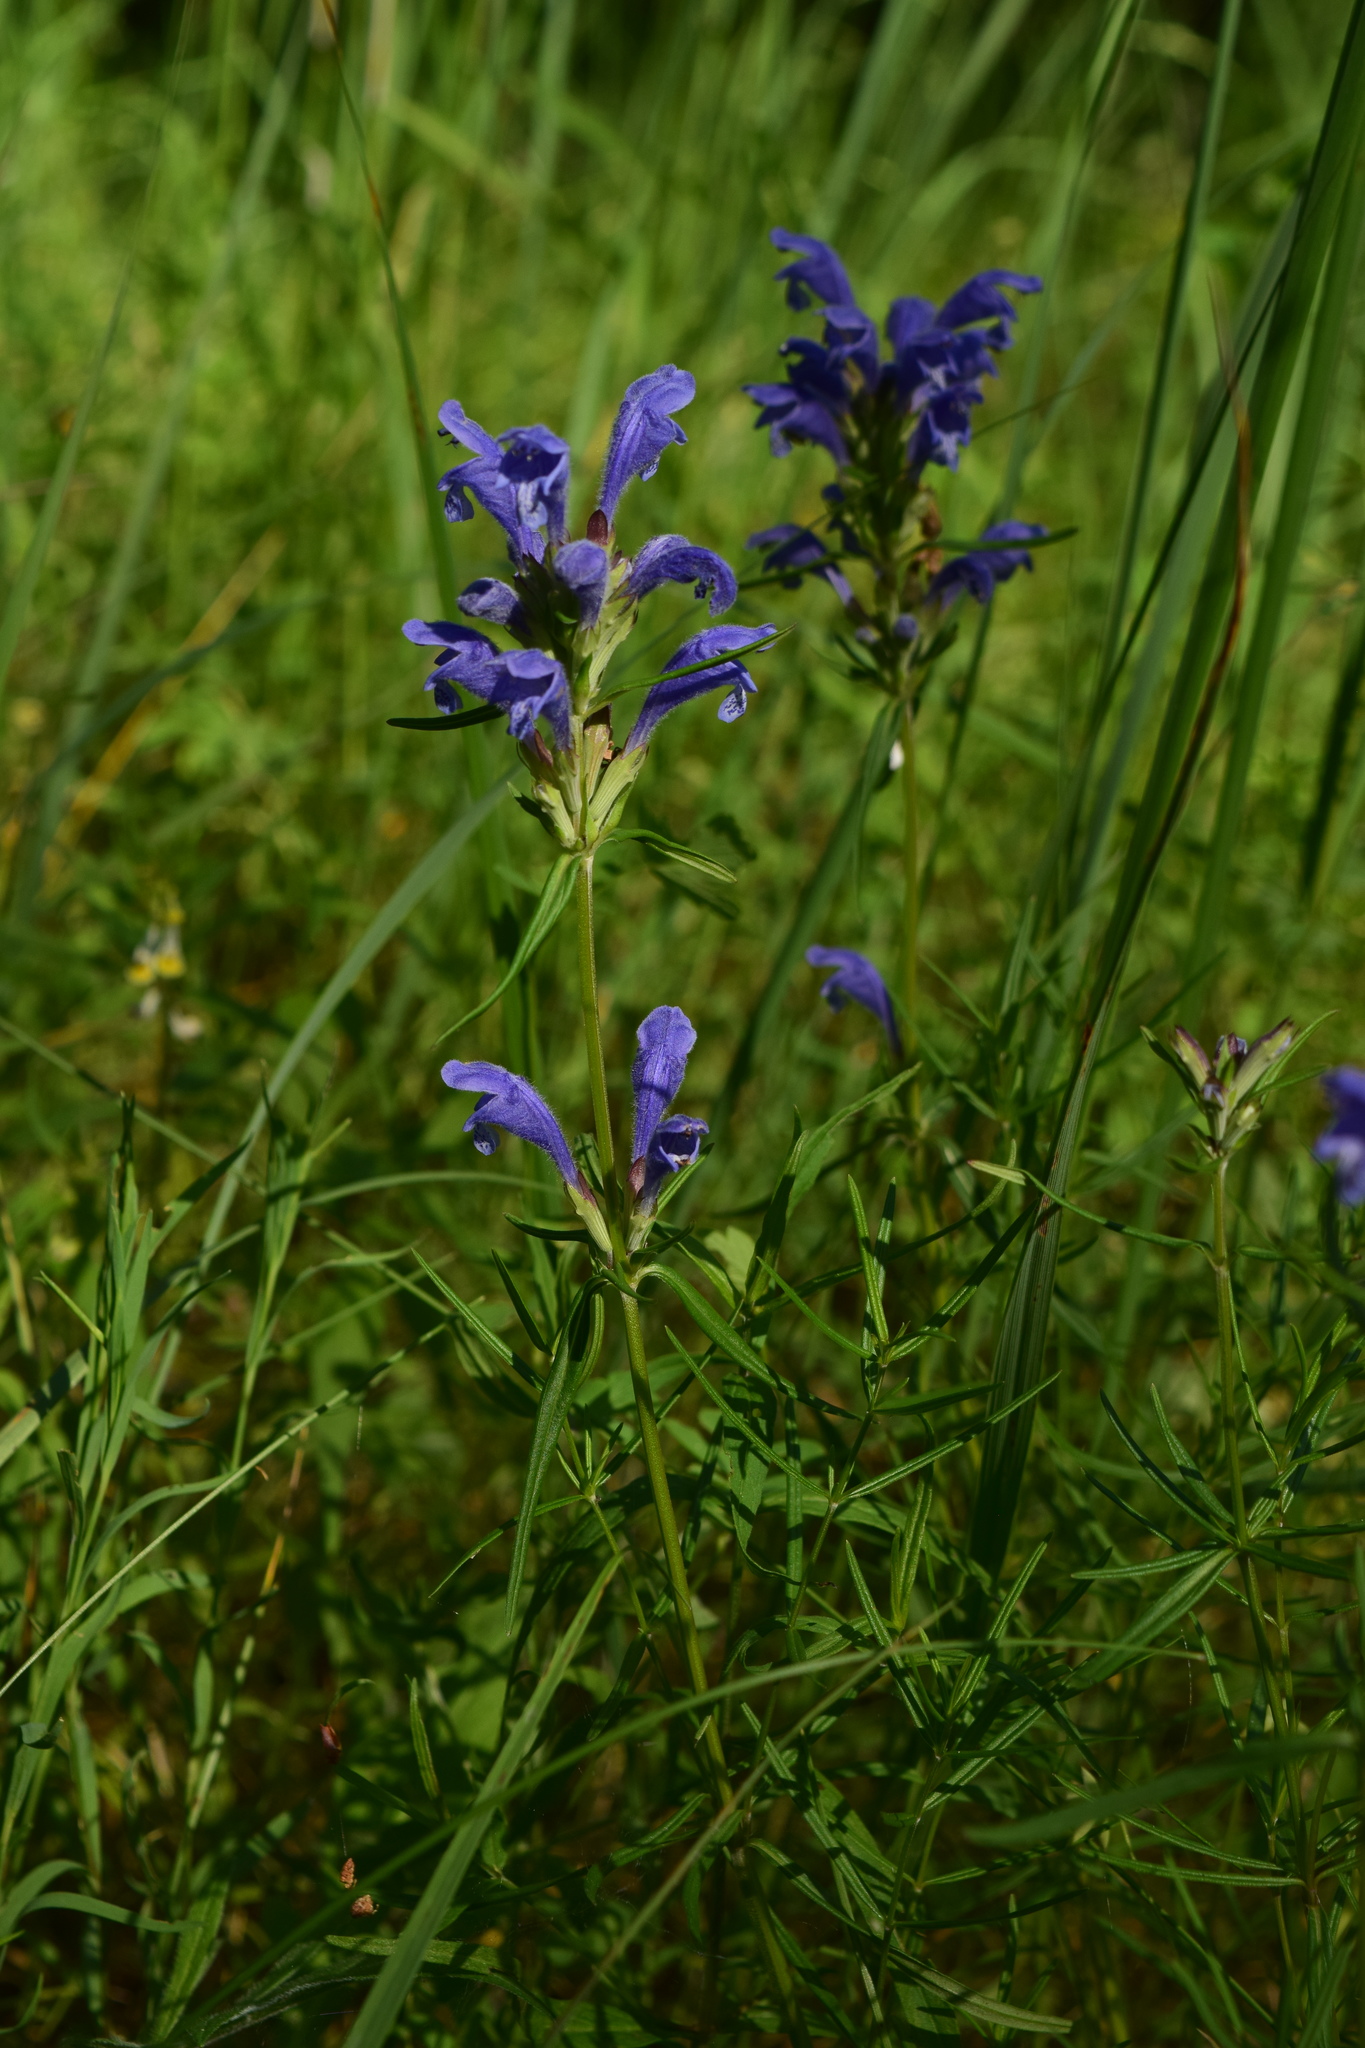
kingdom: Plantae
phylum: Tracheophyta
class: Magnoliopsida
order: Lamiales
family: Lamiaceae
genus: Dracocephalum
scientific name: Dracocephalum ruyschiana
